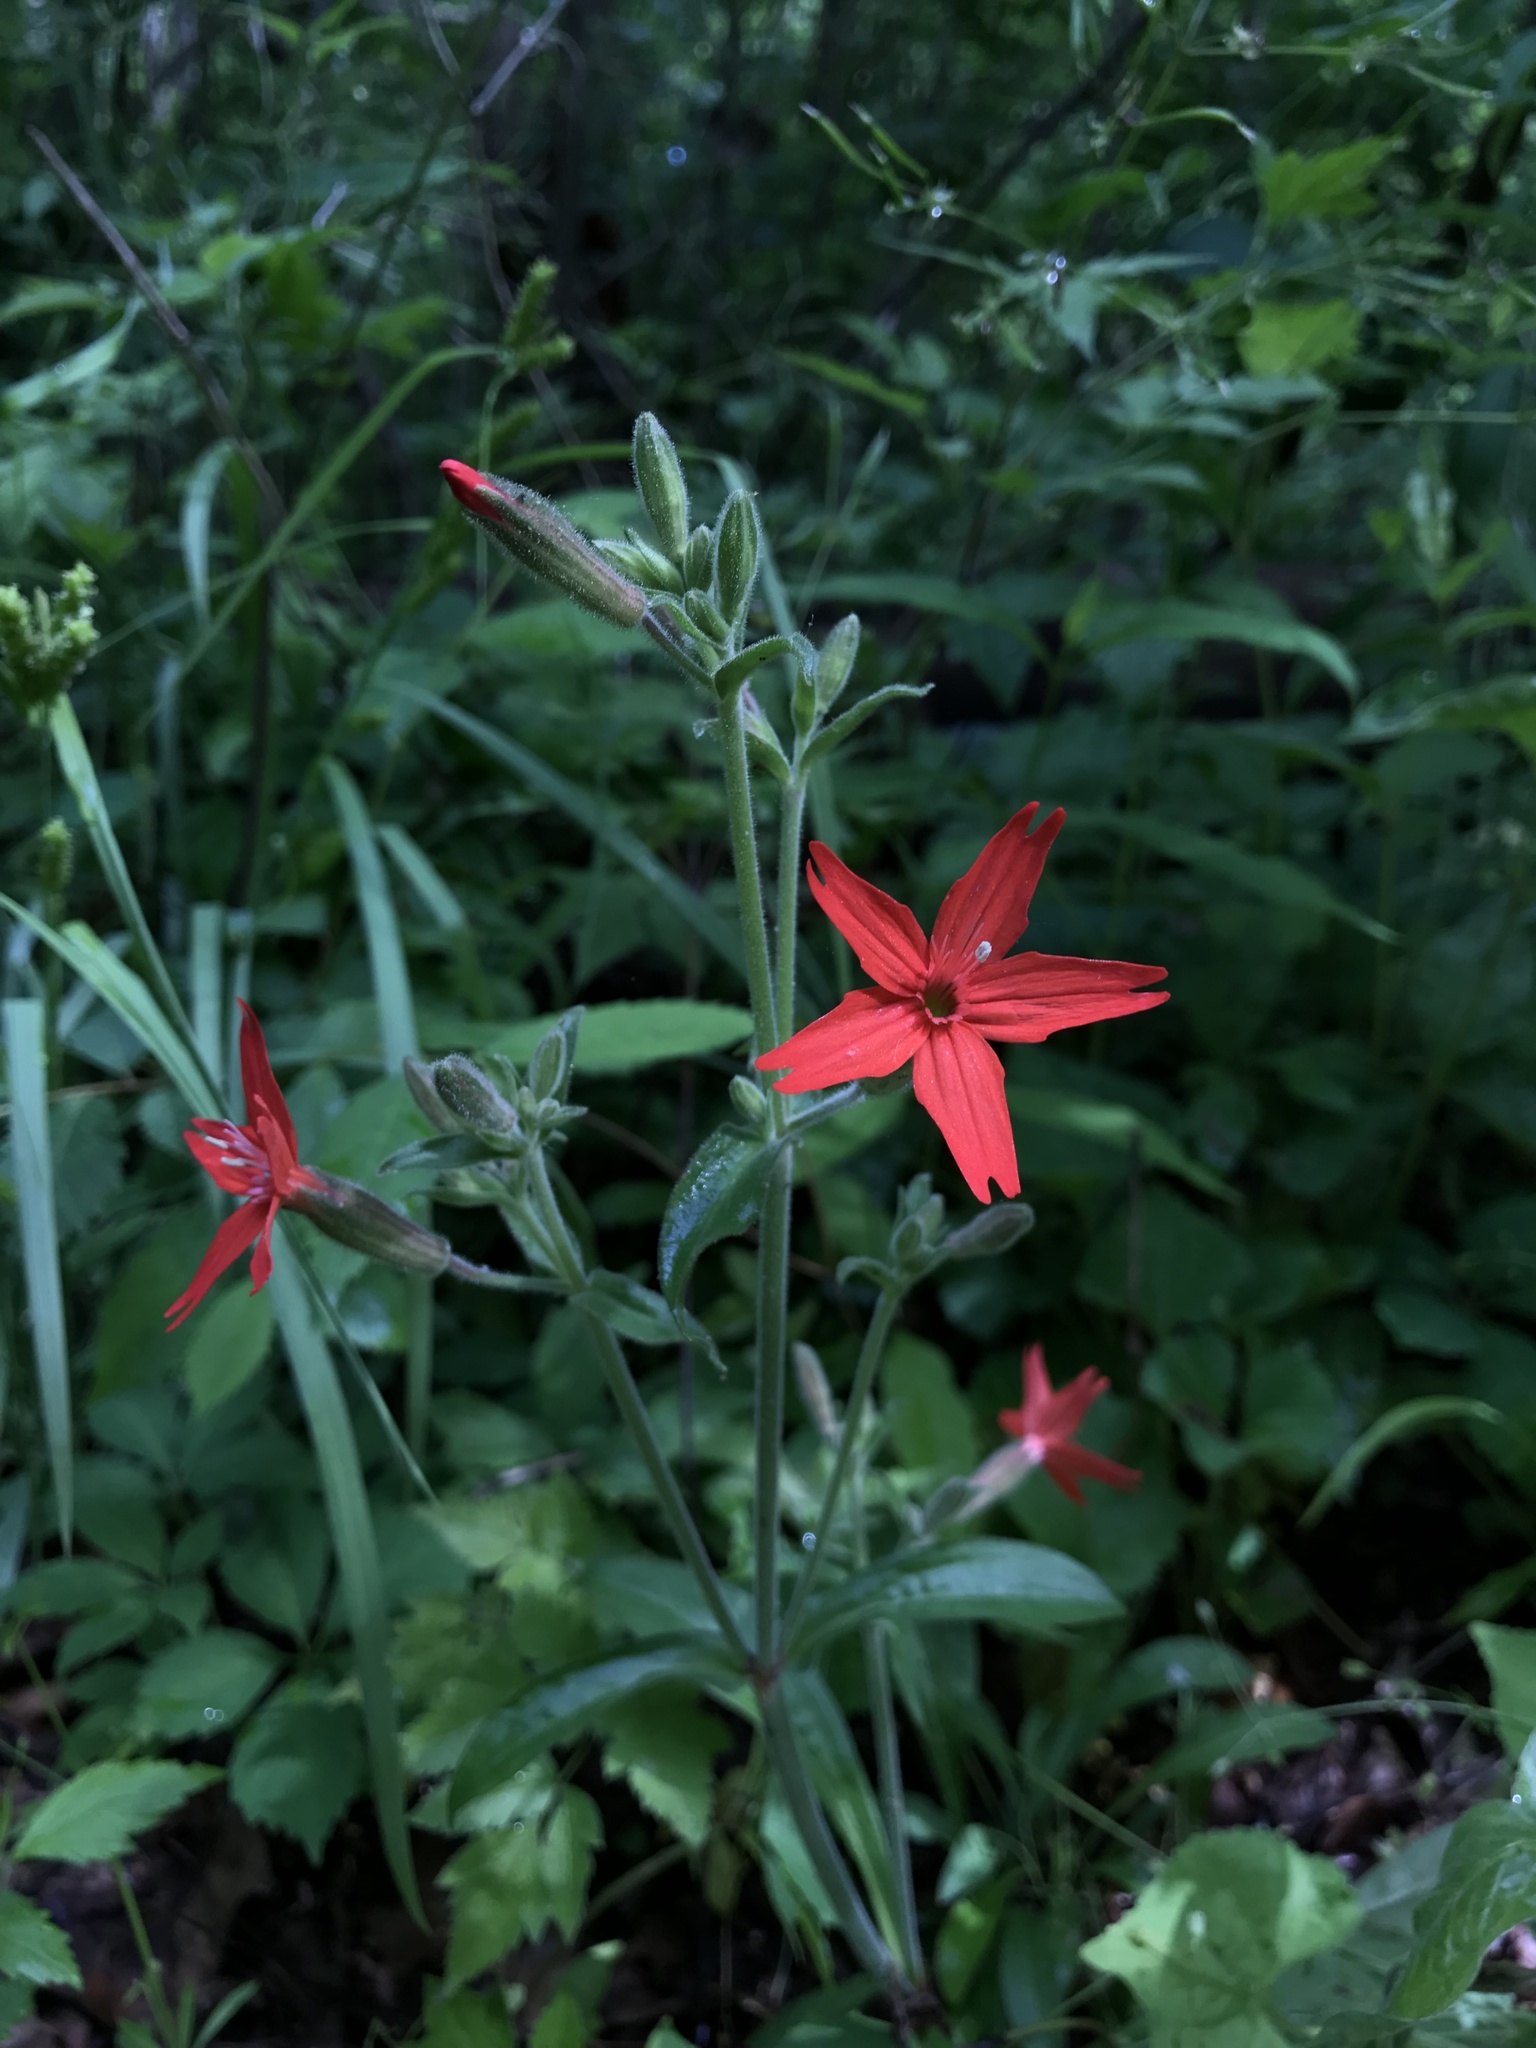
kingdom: Plantae
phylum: Tracheophyta
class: Magnoliopsida
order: Caryophyllales
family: Caryophyllaceae
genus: Silene
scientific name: Silene virginica
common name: Fire-pink
